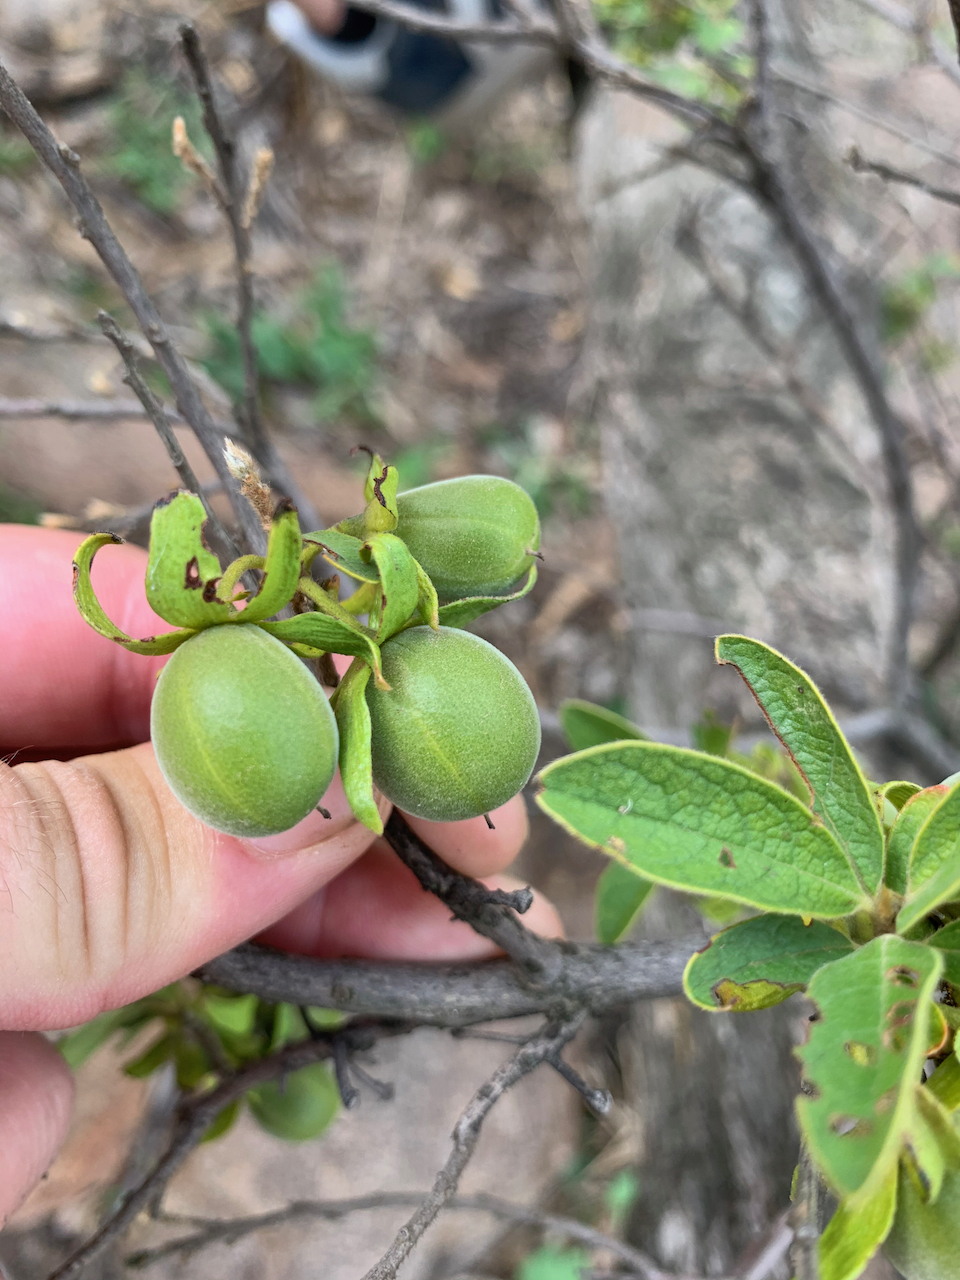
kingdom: Plantae
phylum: Tracheophyta
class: Magnoliopsida
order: Ericales
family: Ebenaceae
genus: Diospyros
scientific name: Diospyros lycioides
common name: Red star apple
